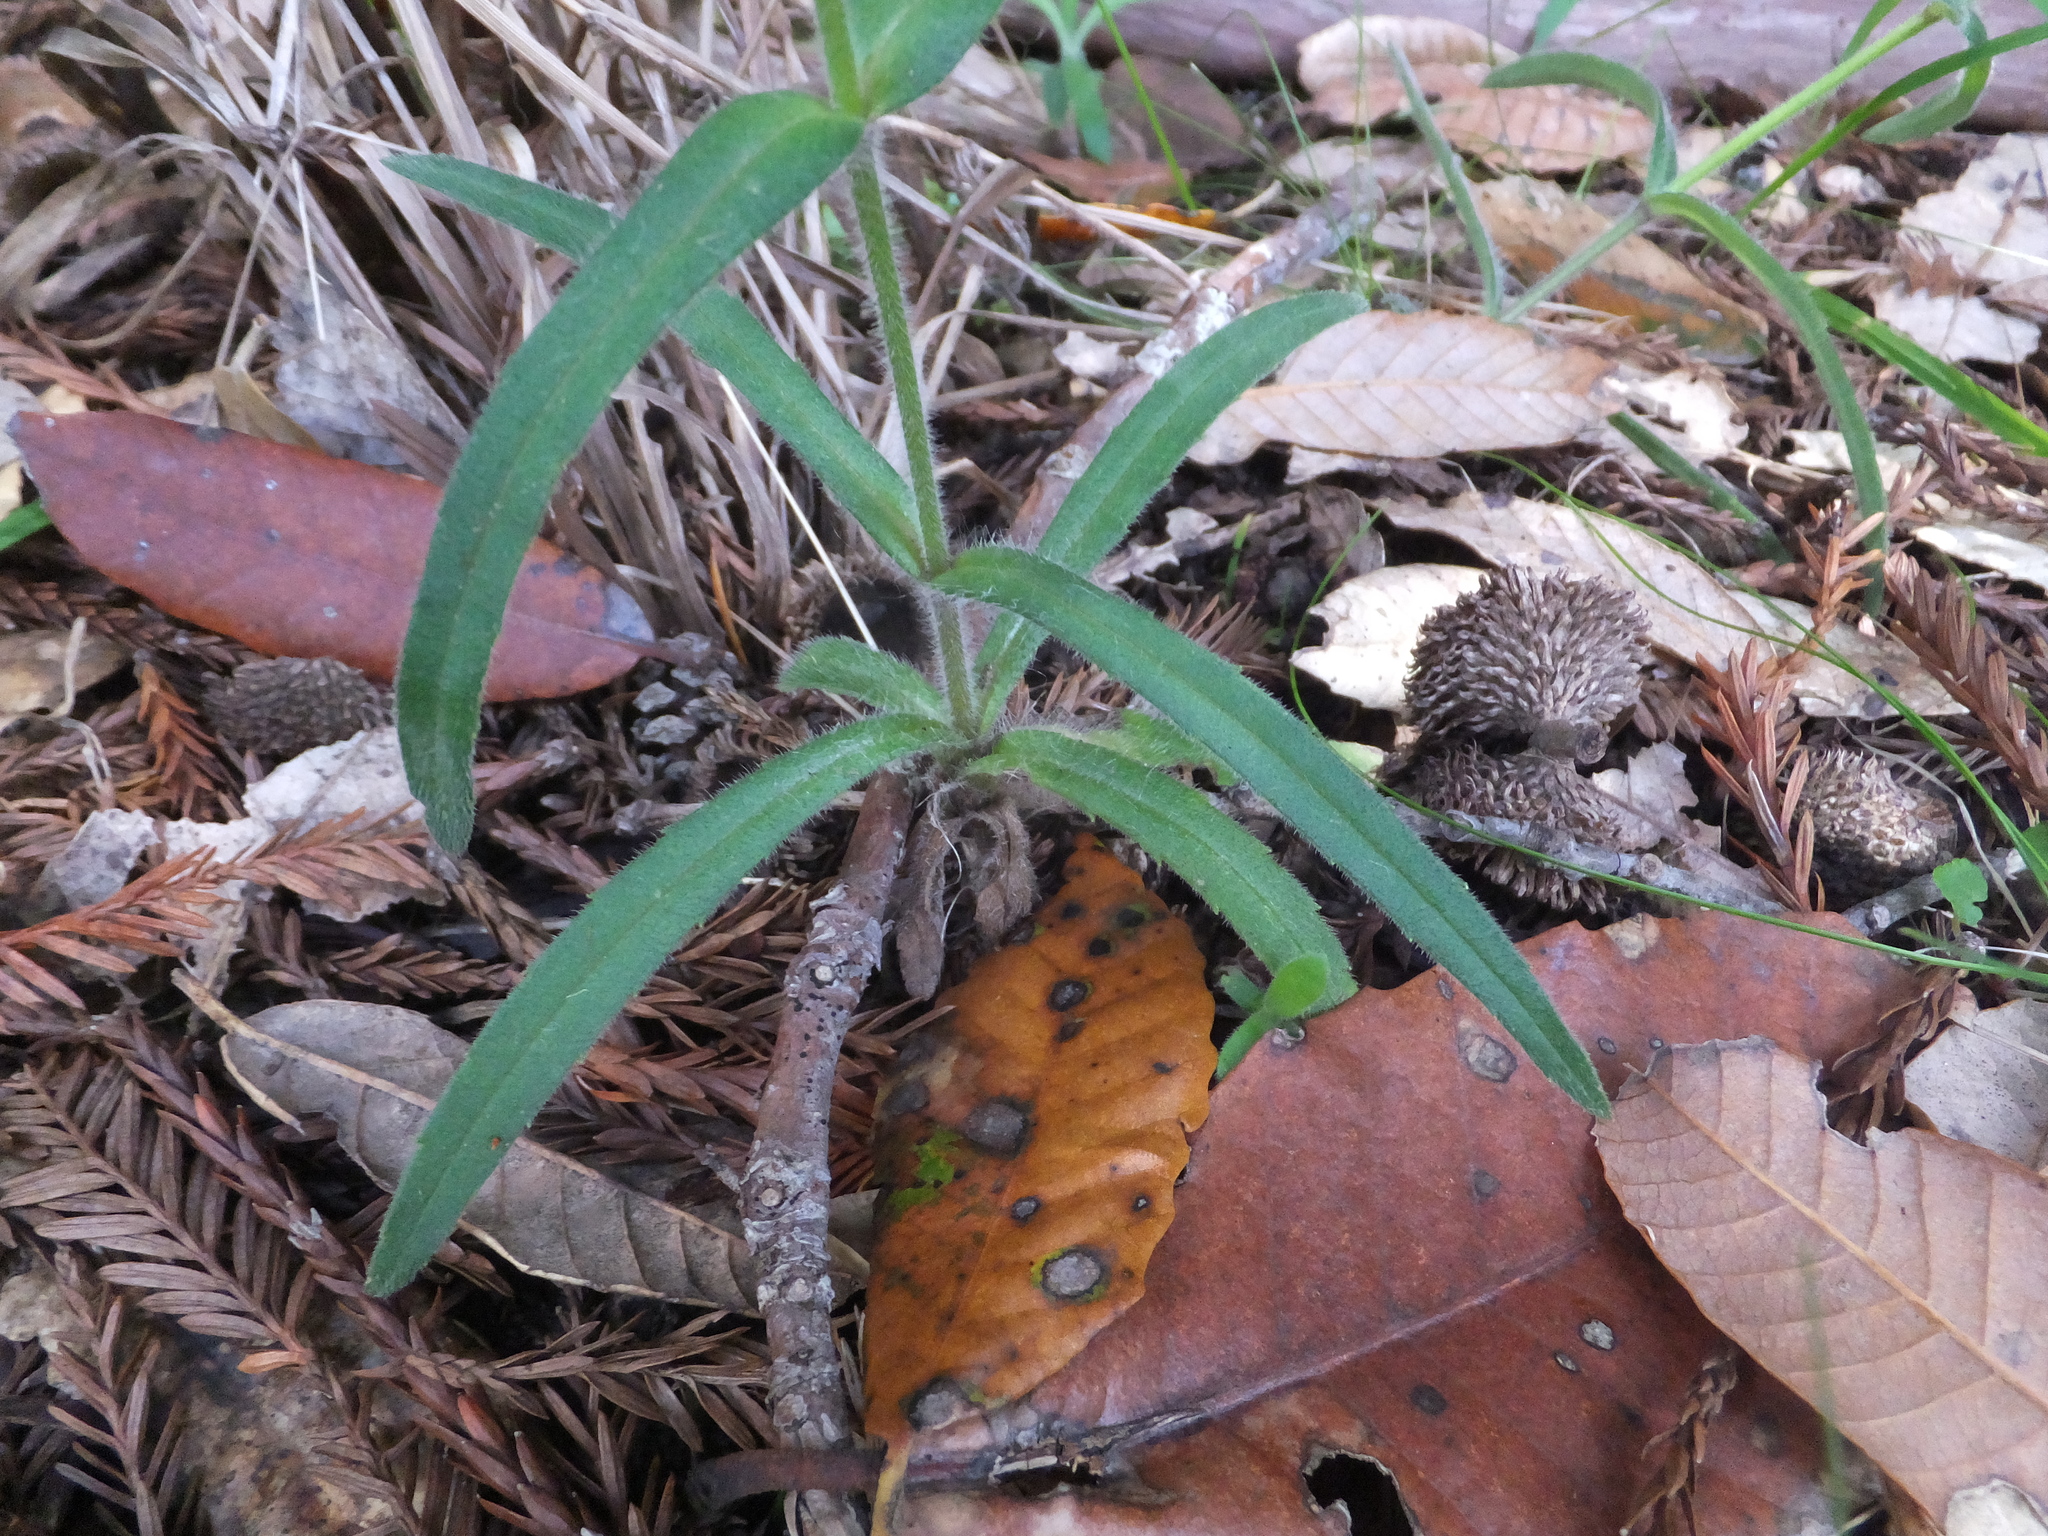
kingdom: Plantae
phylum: Tracheophyta
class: Magnoliopsida
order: Asterales
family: Asteraceae
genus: Anisocarpus
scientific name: Anisocarpus madioides
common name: Woodland madia
